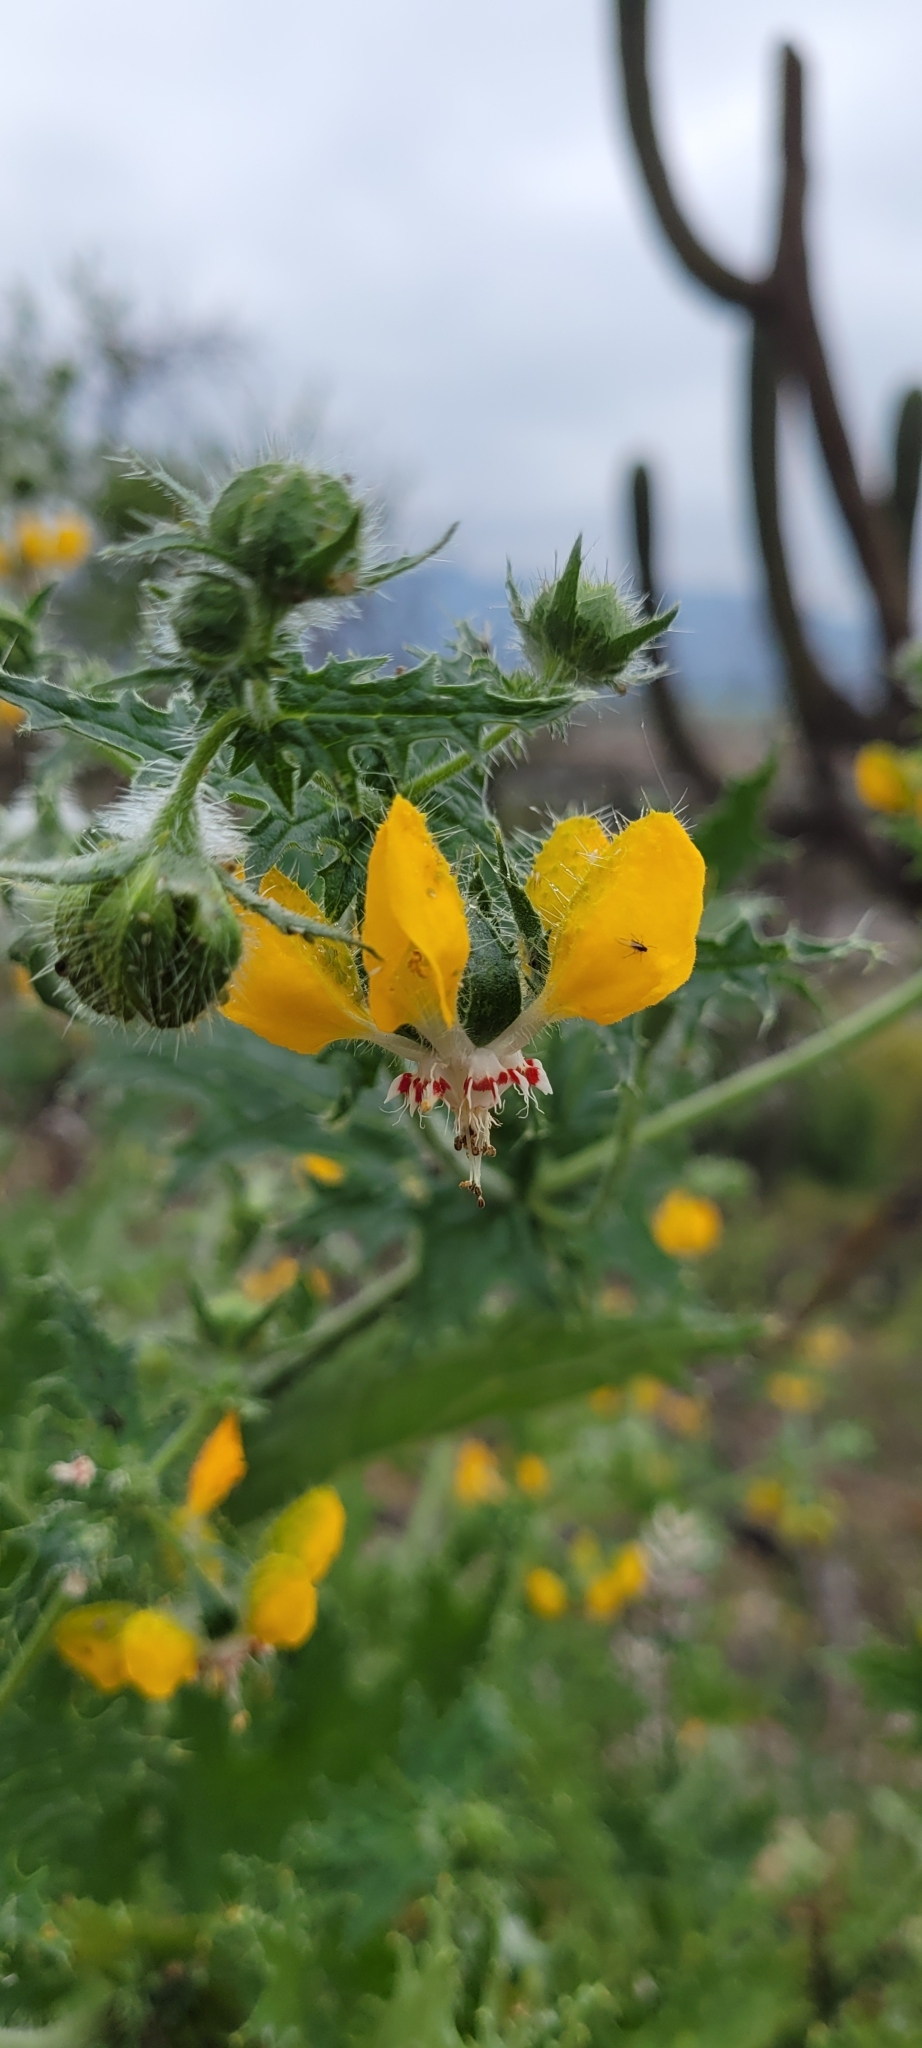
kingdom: Plantae
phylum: Tracheophyta
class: Magnoliopsida
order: Cornales
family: Loasaceae
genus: Loasa
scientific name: Loasa placei
